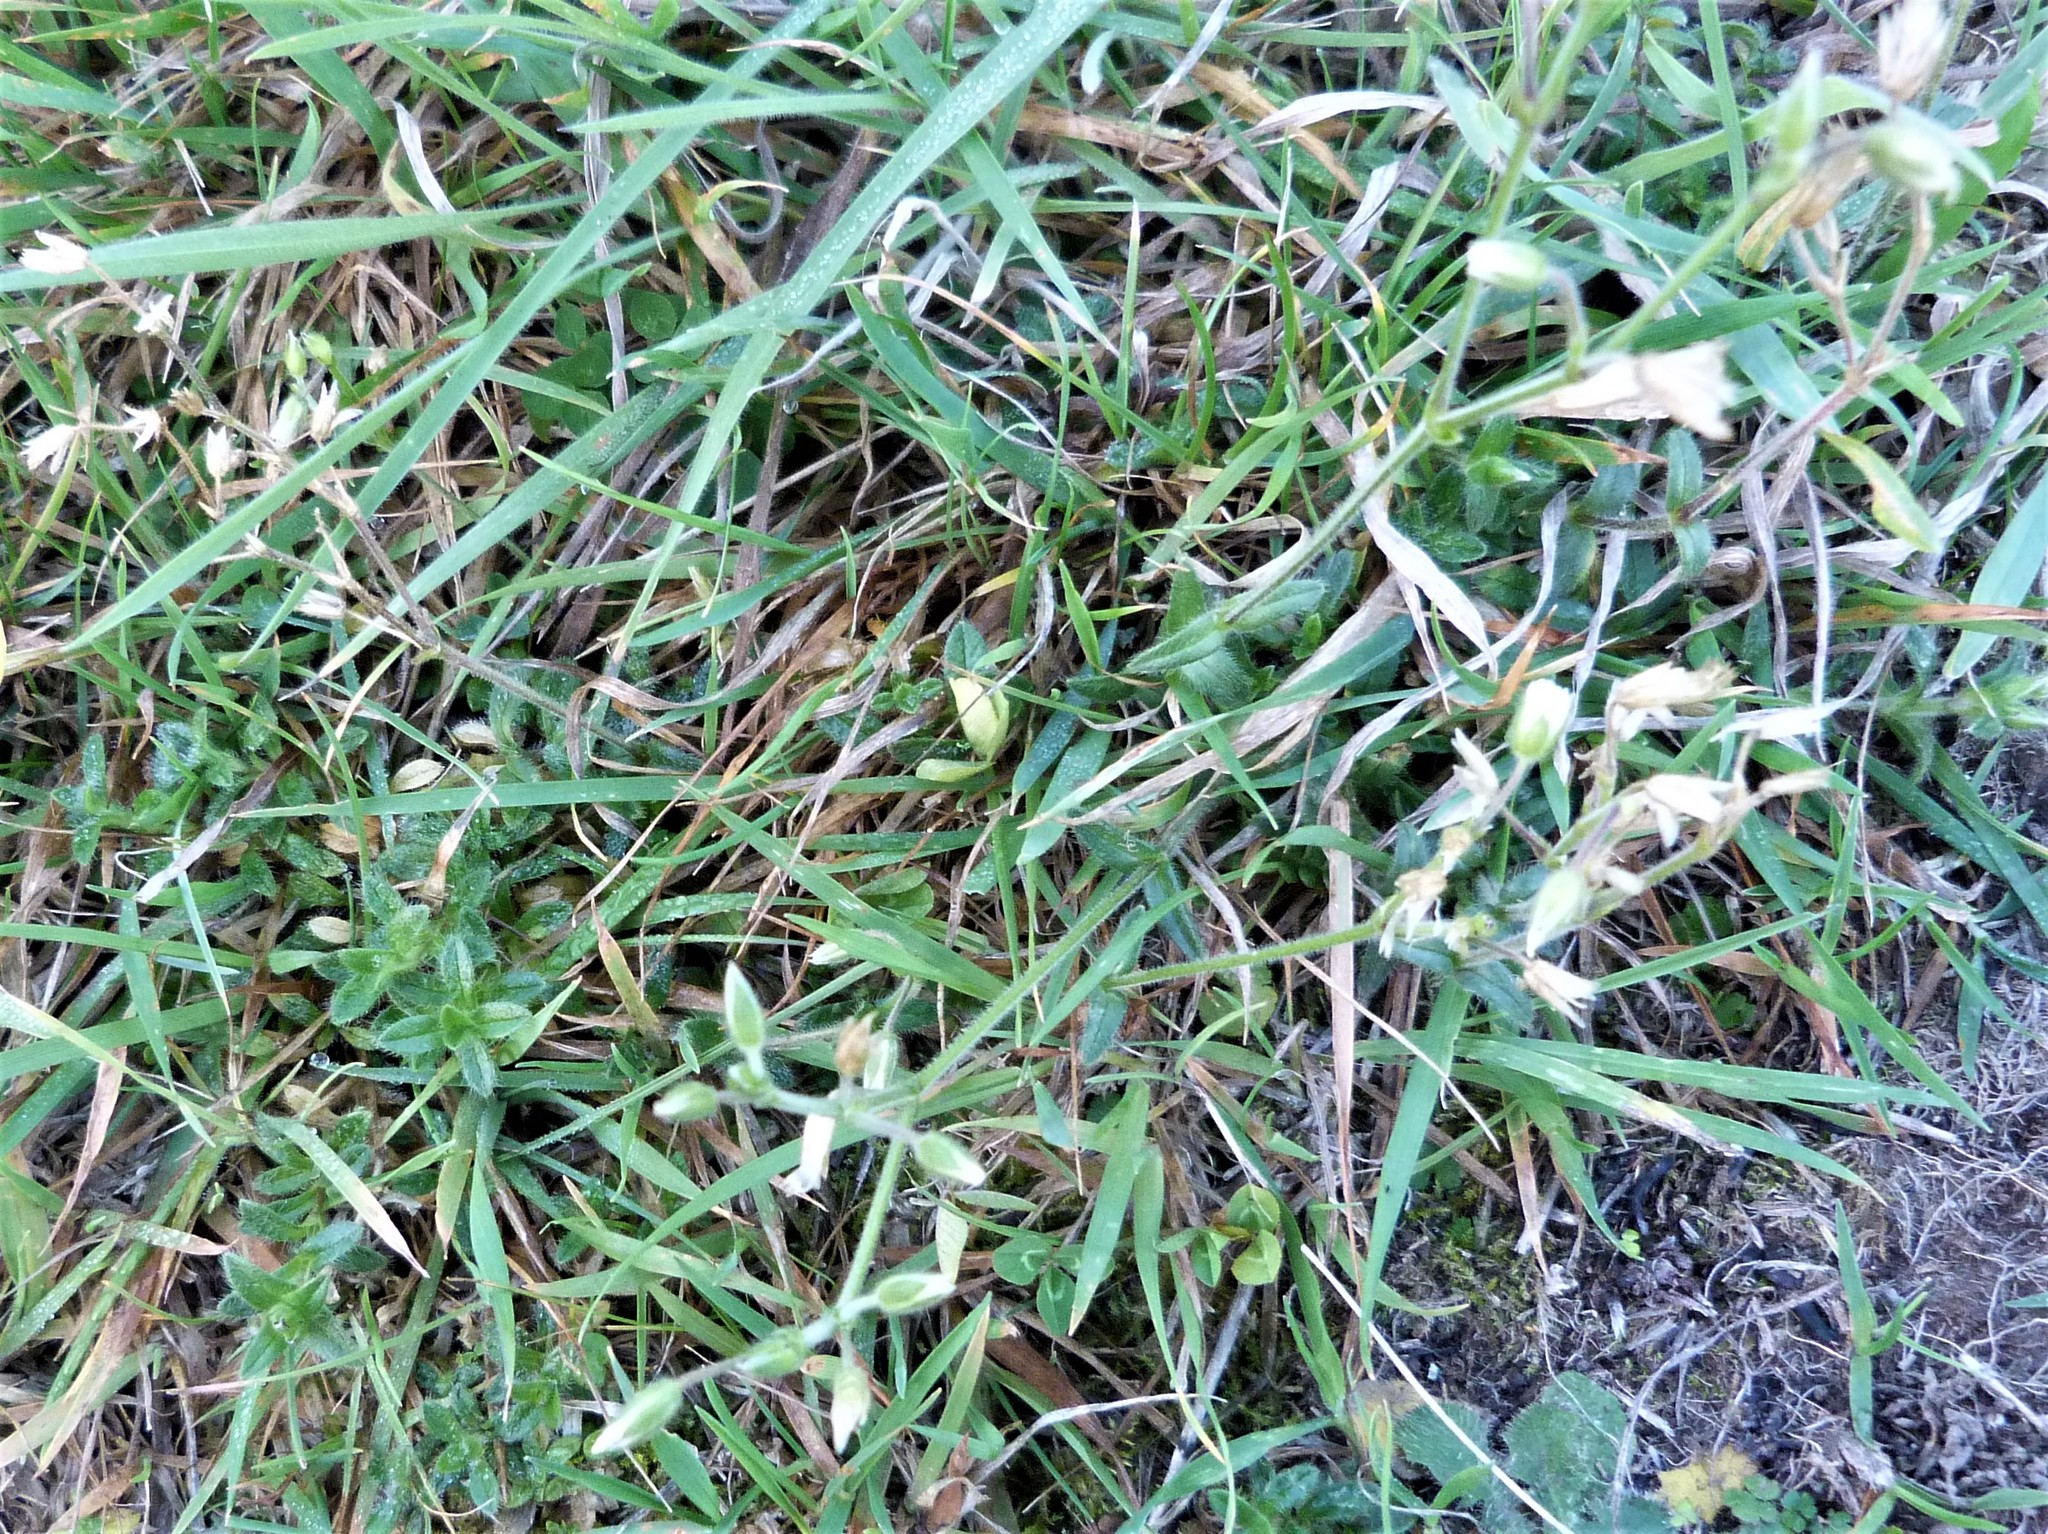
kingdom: Plantae
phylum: Tracheophyta
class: Magnoliopsida
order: Caryophyllales
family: Caryophyllaceae
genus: Cerastium
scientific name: Cerastium fontanum
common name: Common mouse-ear
